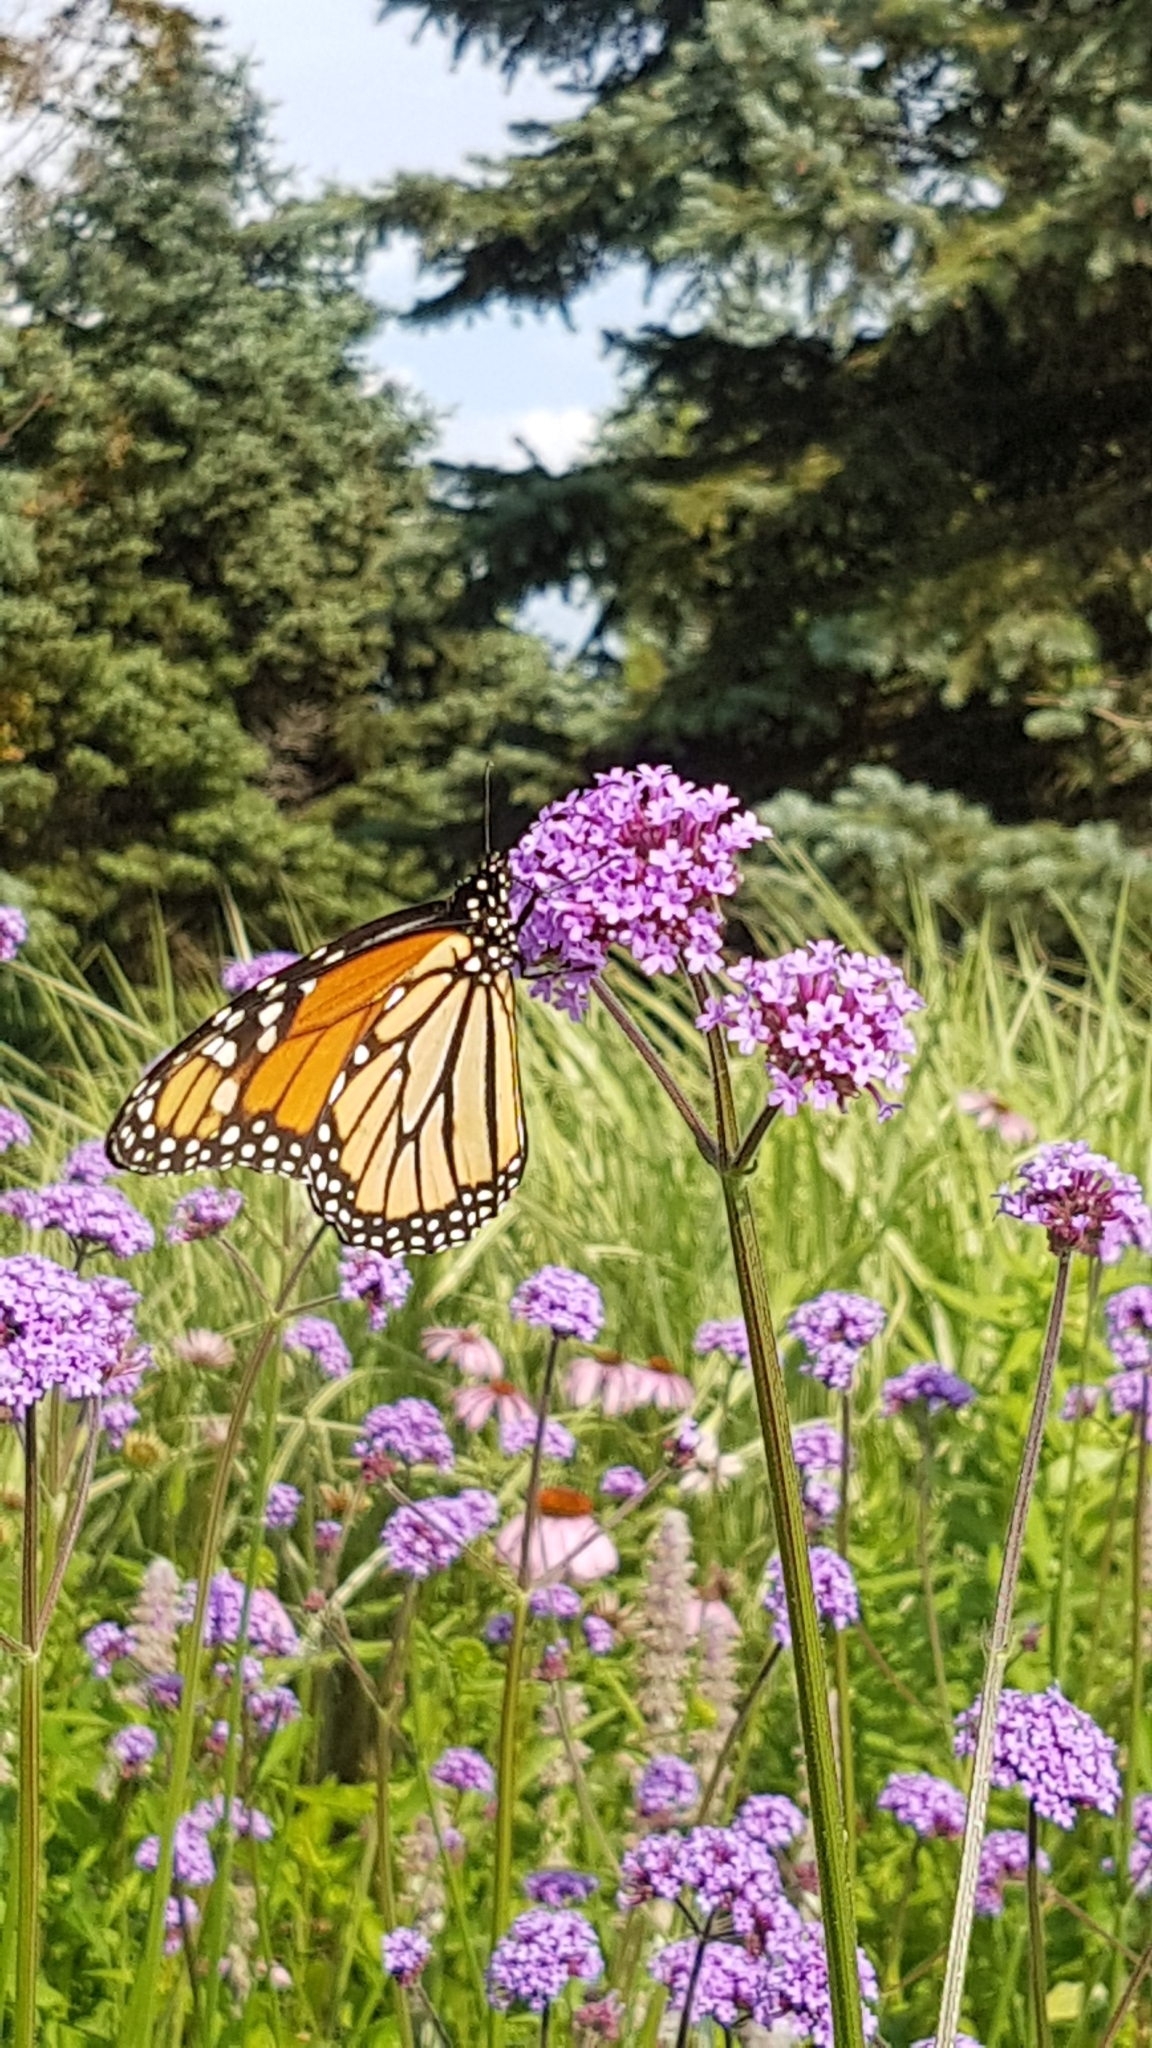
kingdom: Animalia
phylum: Arthropoda
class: Insecta
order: Lepidoptera
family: Nymphalidae
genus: Danaus
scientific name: Danaus plexippus
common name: Monarch
